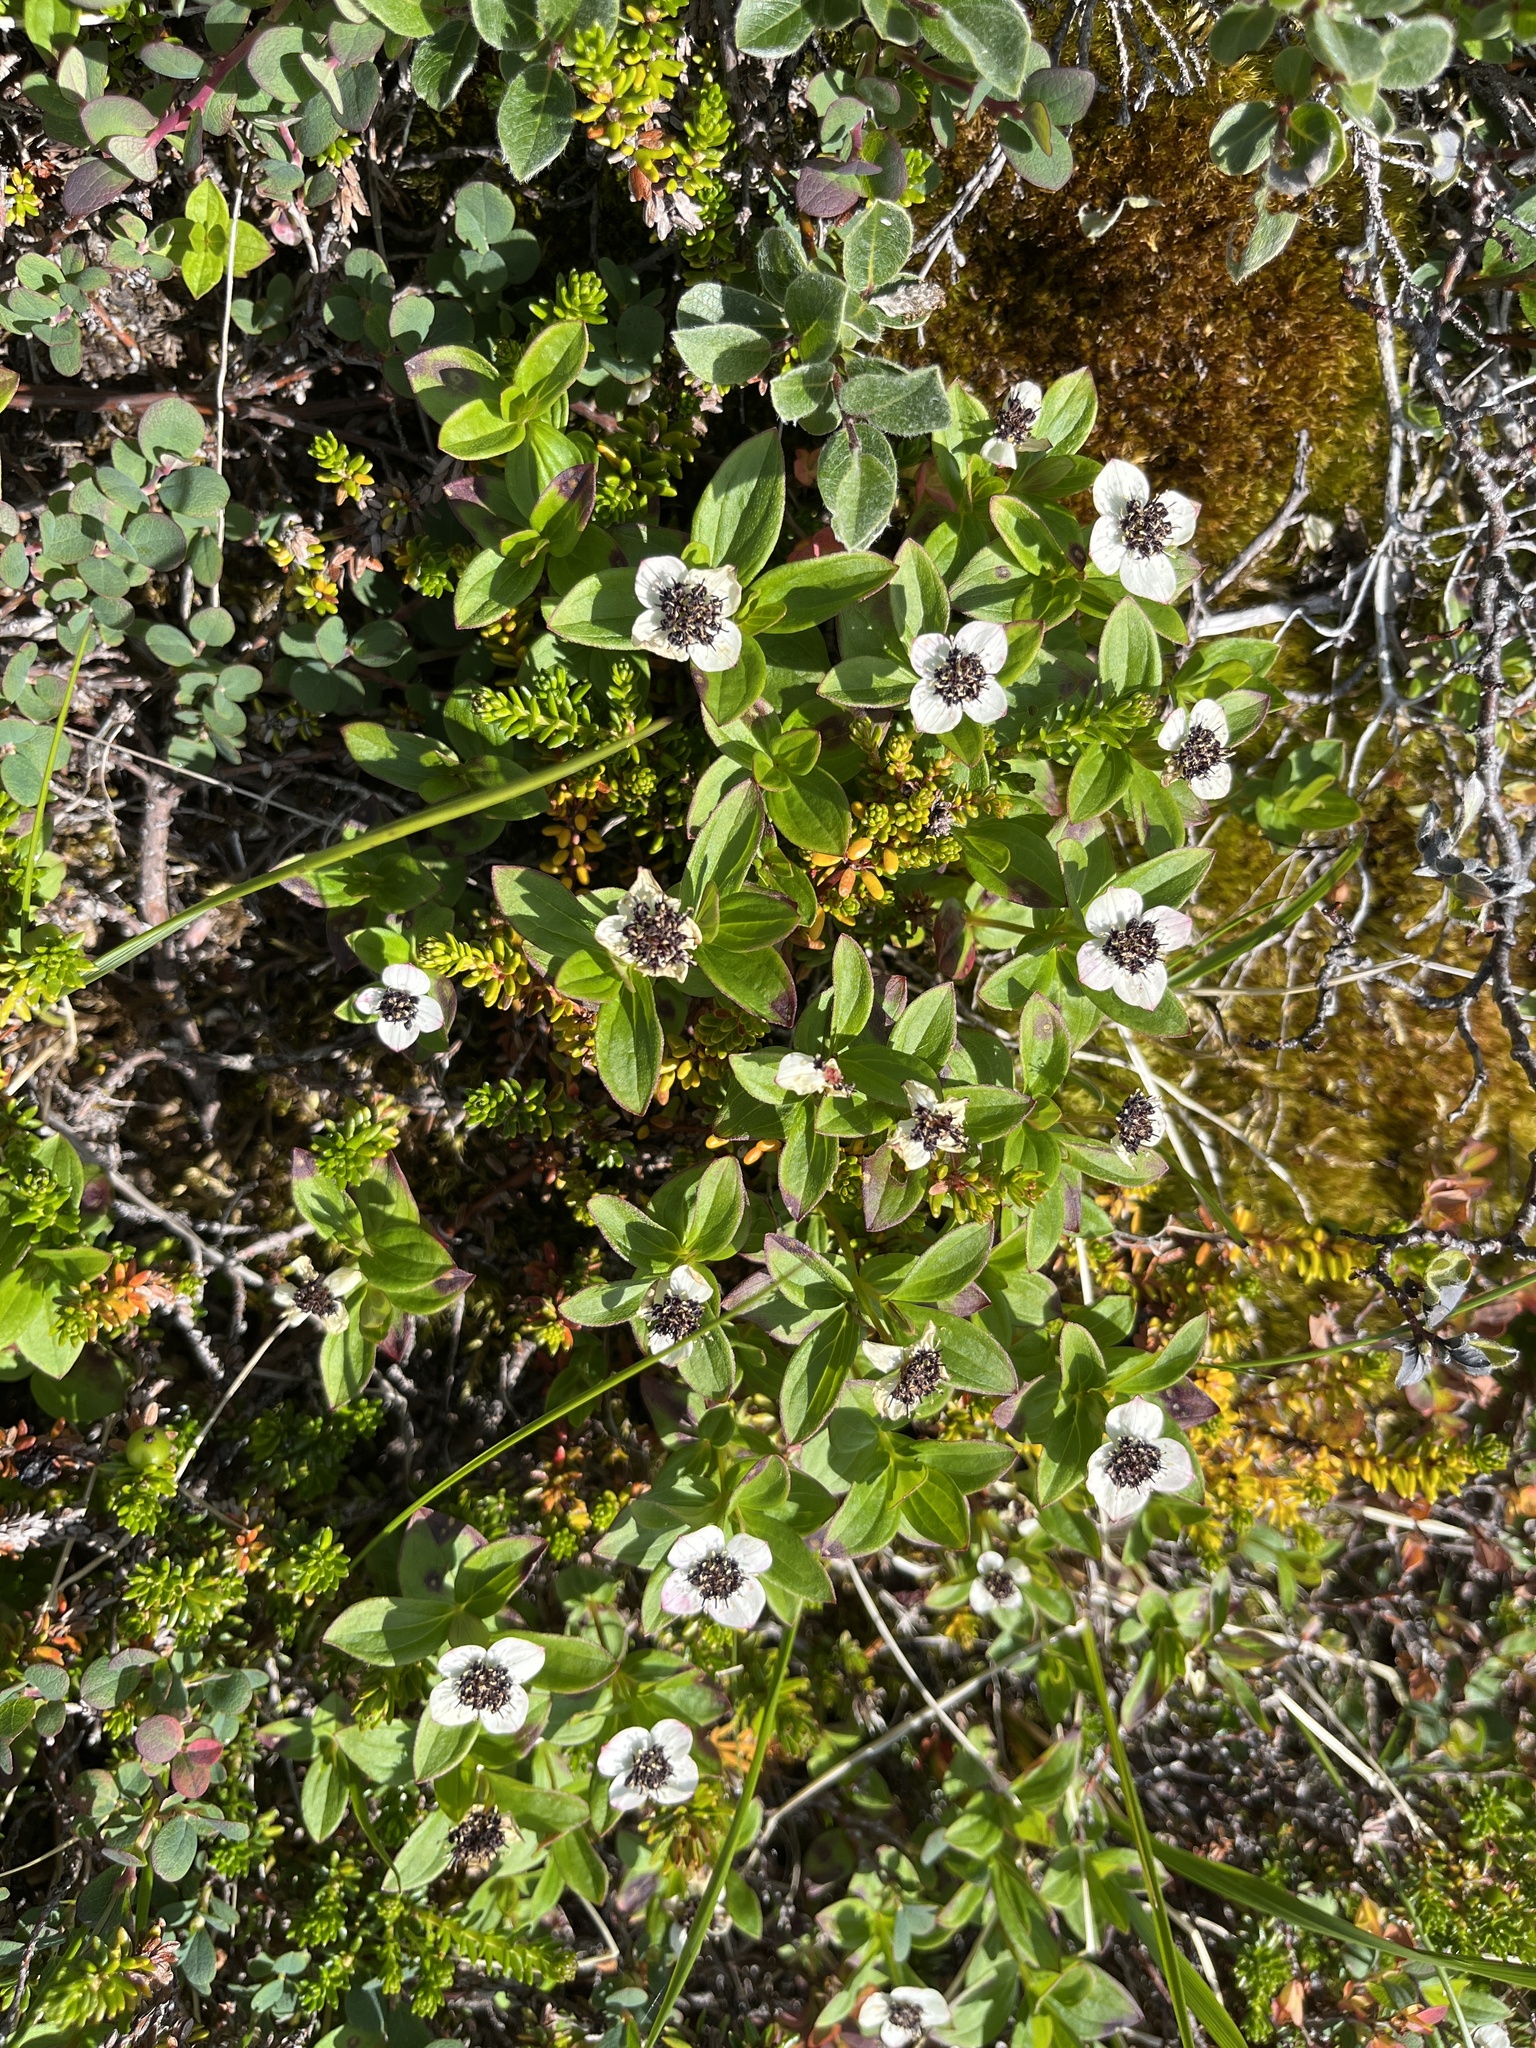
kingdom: Plantae
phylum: Tracheophyta
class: Magnoliopsida
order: Cornales
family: Cornaceae
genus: Cornus
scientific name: Cornus suecica
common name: Dwarf cornel
